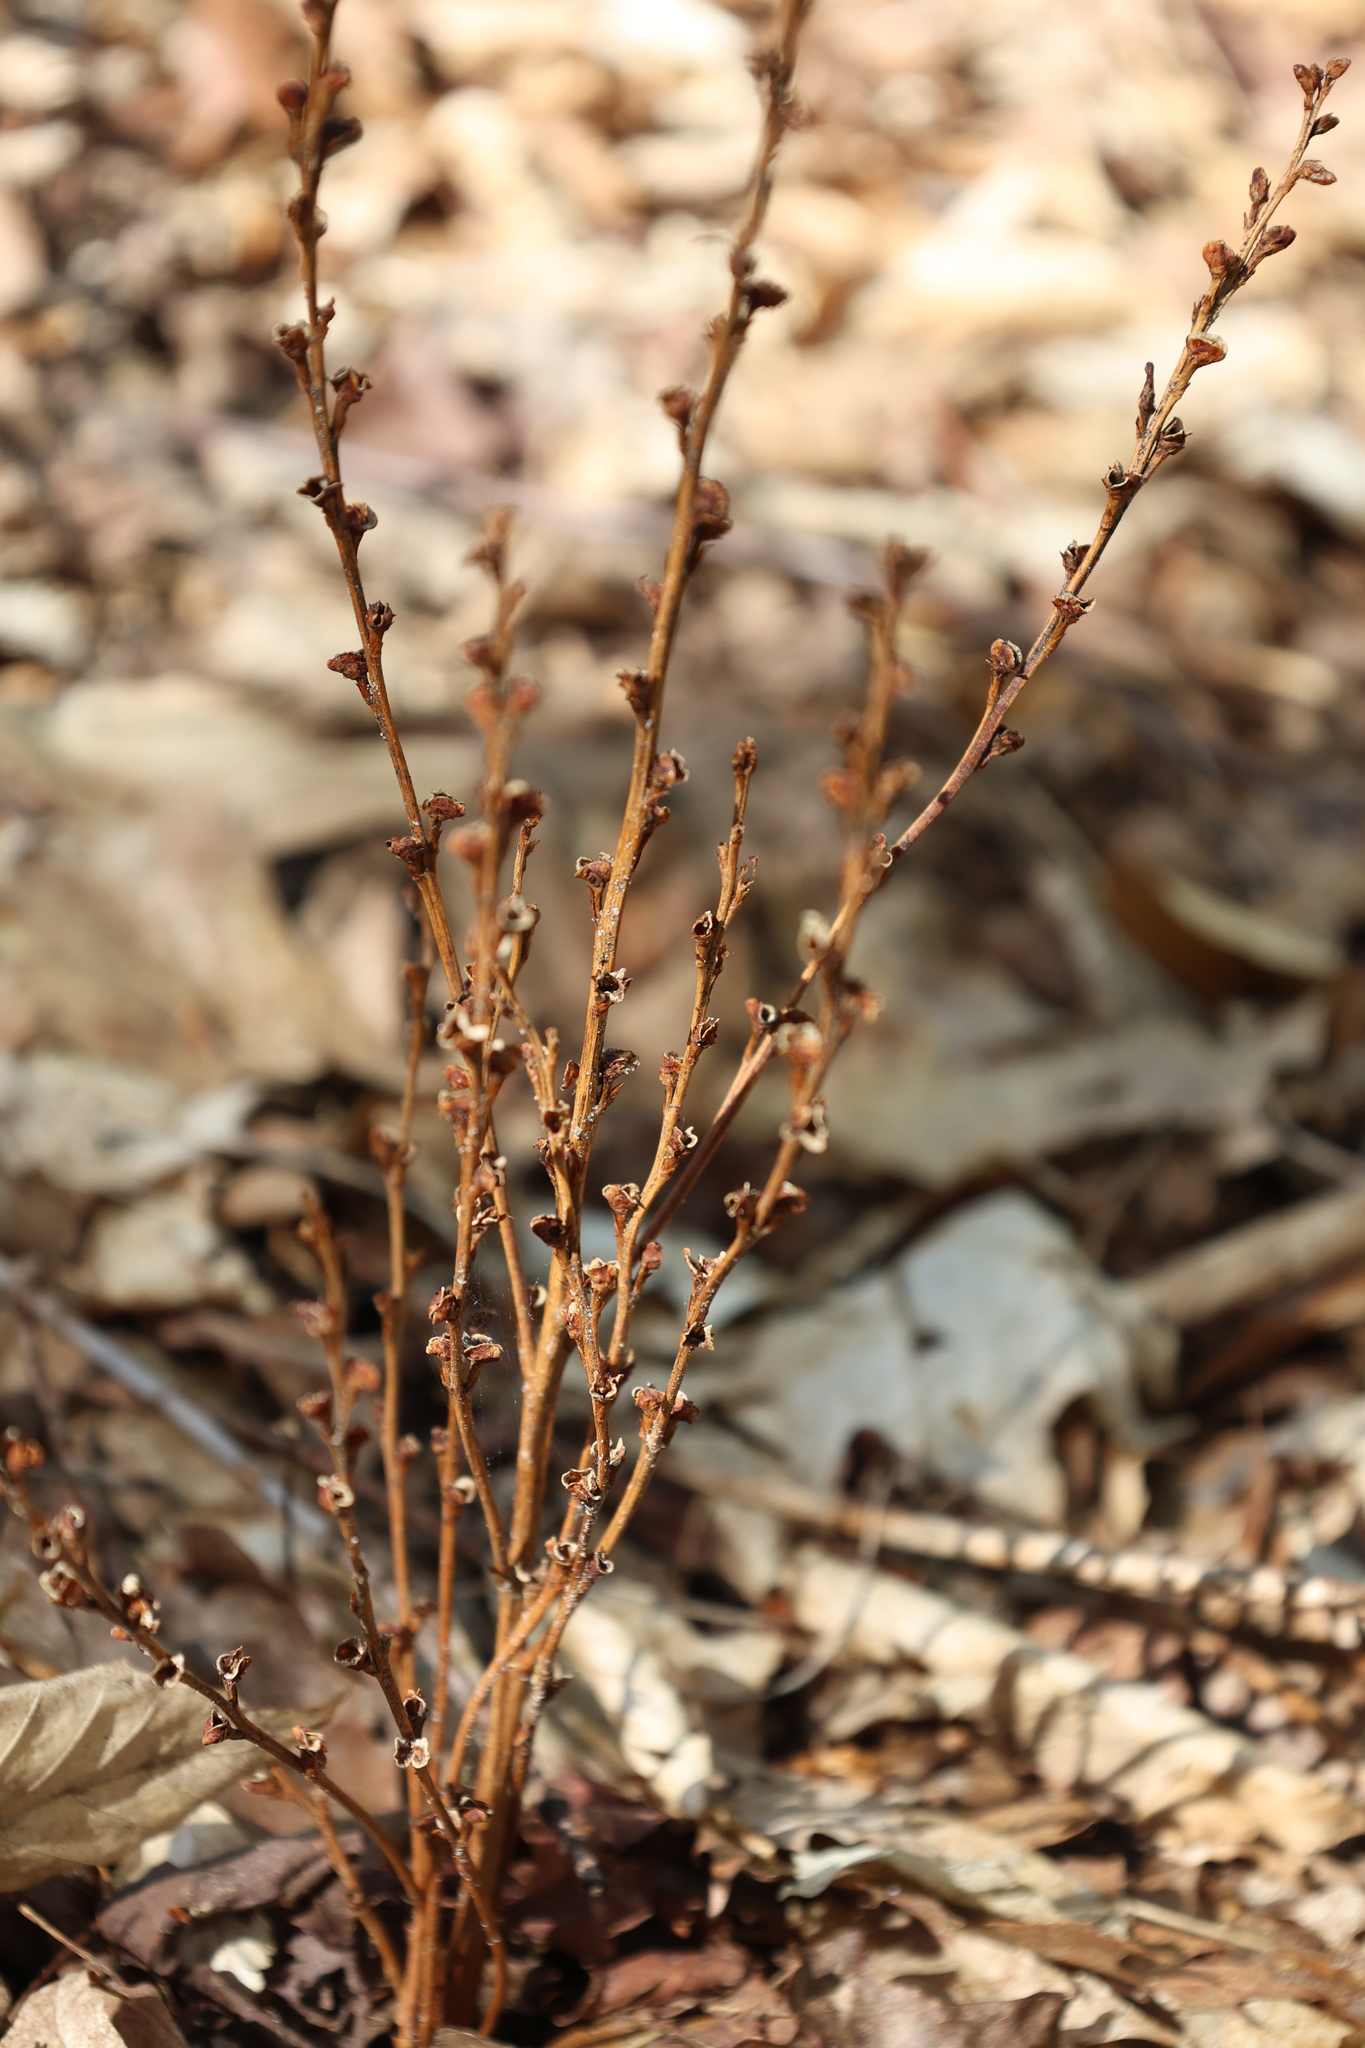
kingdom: Plantae
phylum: Tracheophyta
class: Magnoliopsida
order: Lamiales
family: Orobanchaceae
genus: Epifagus
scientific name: Epifagus virginiana
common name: Beechdrops
